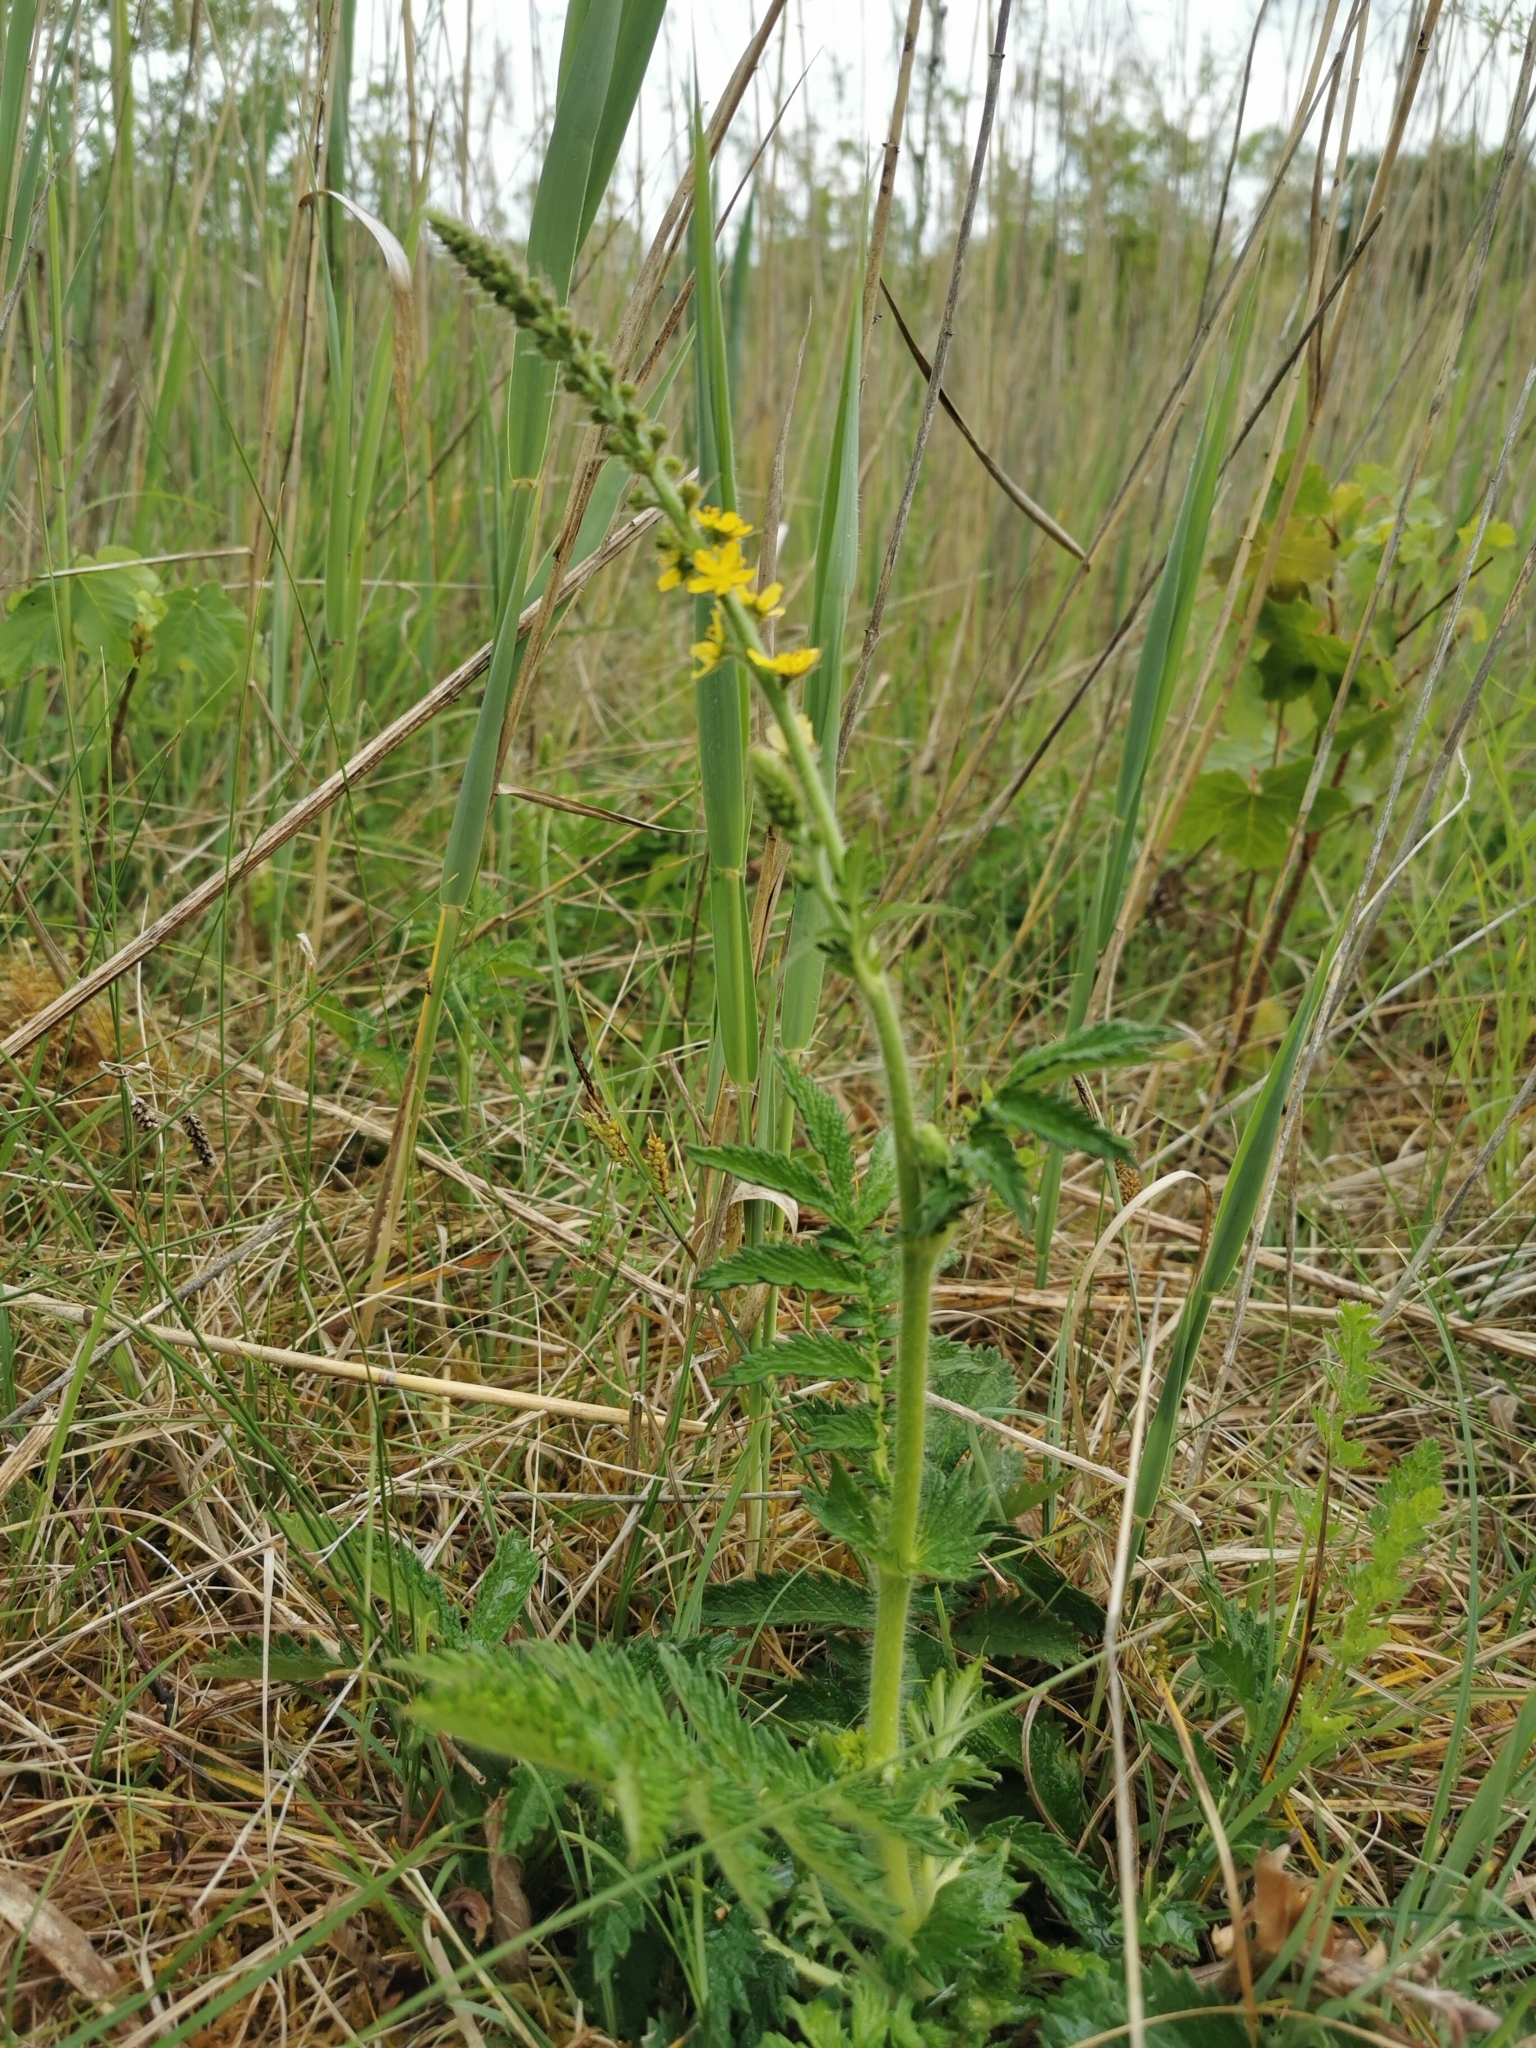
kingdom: Plantae
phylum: Tracheophyta
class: Magnoliopsida
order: Rosales
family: Rosaceae
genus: Agrimonia
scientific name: Agrimonia eupatoria
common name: Agrimony
